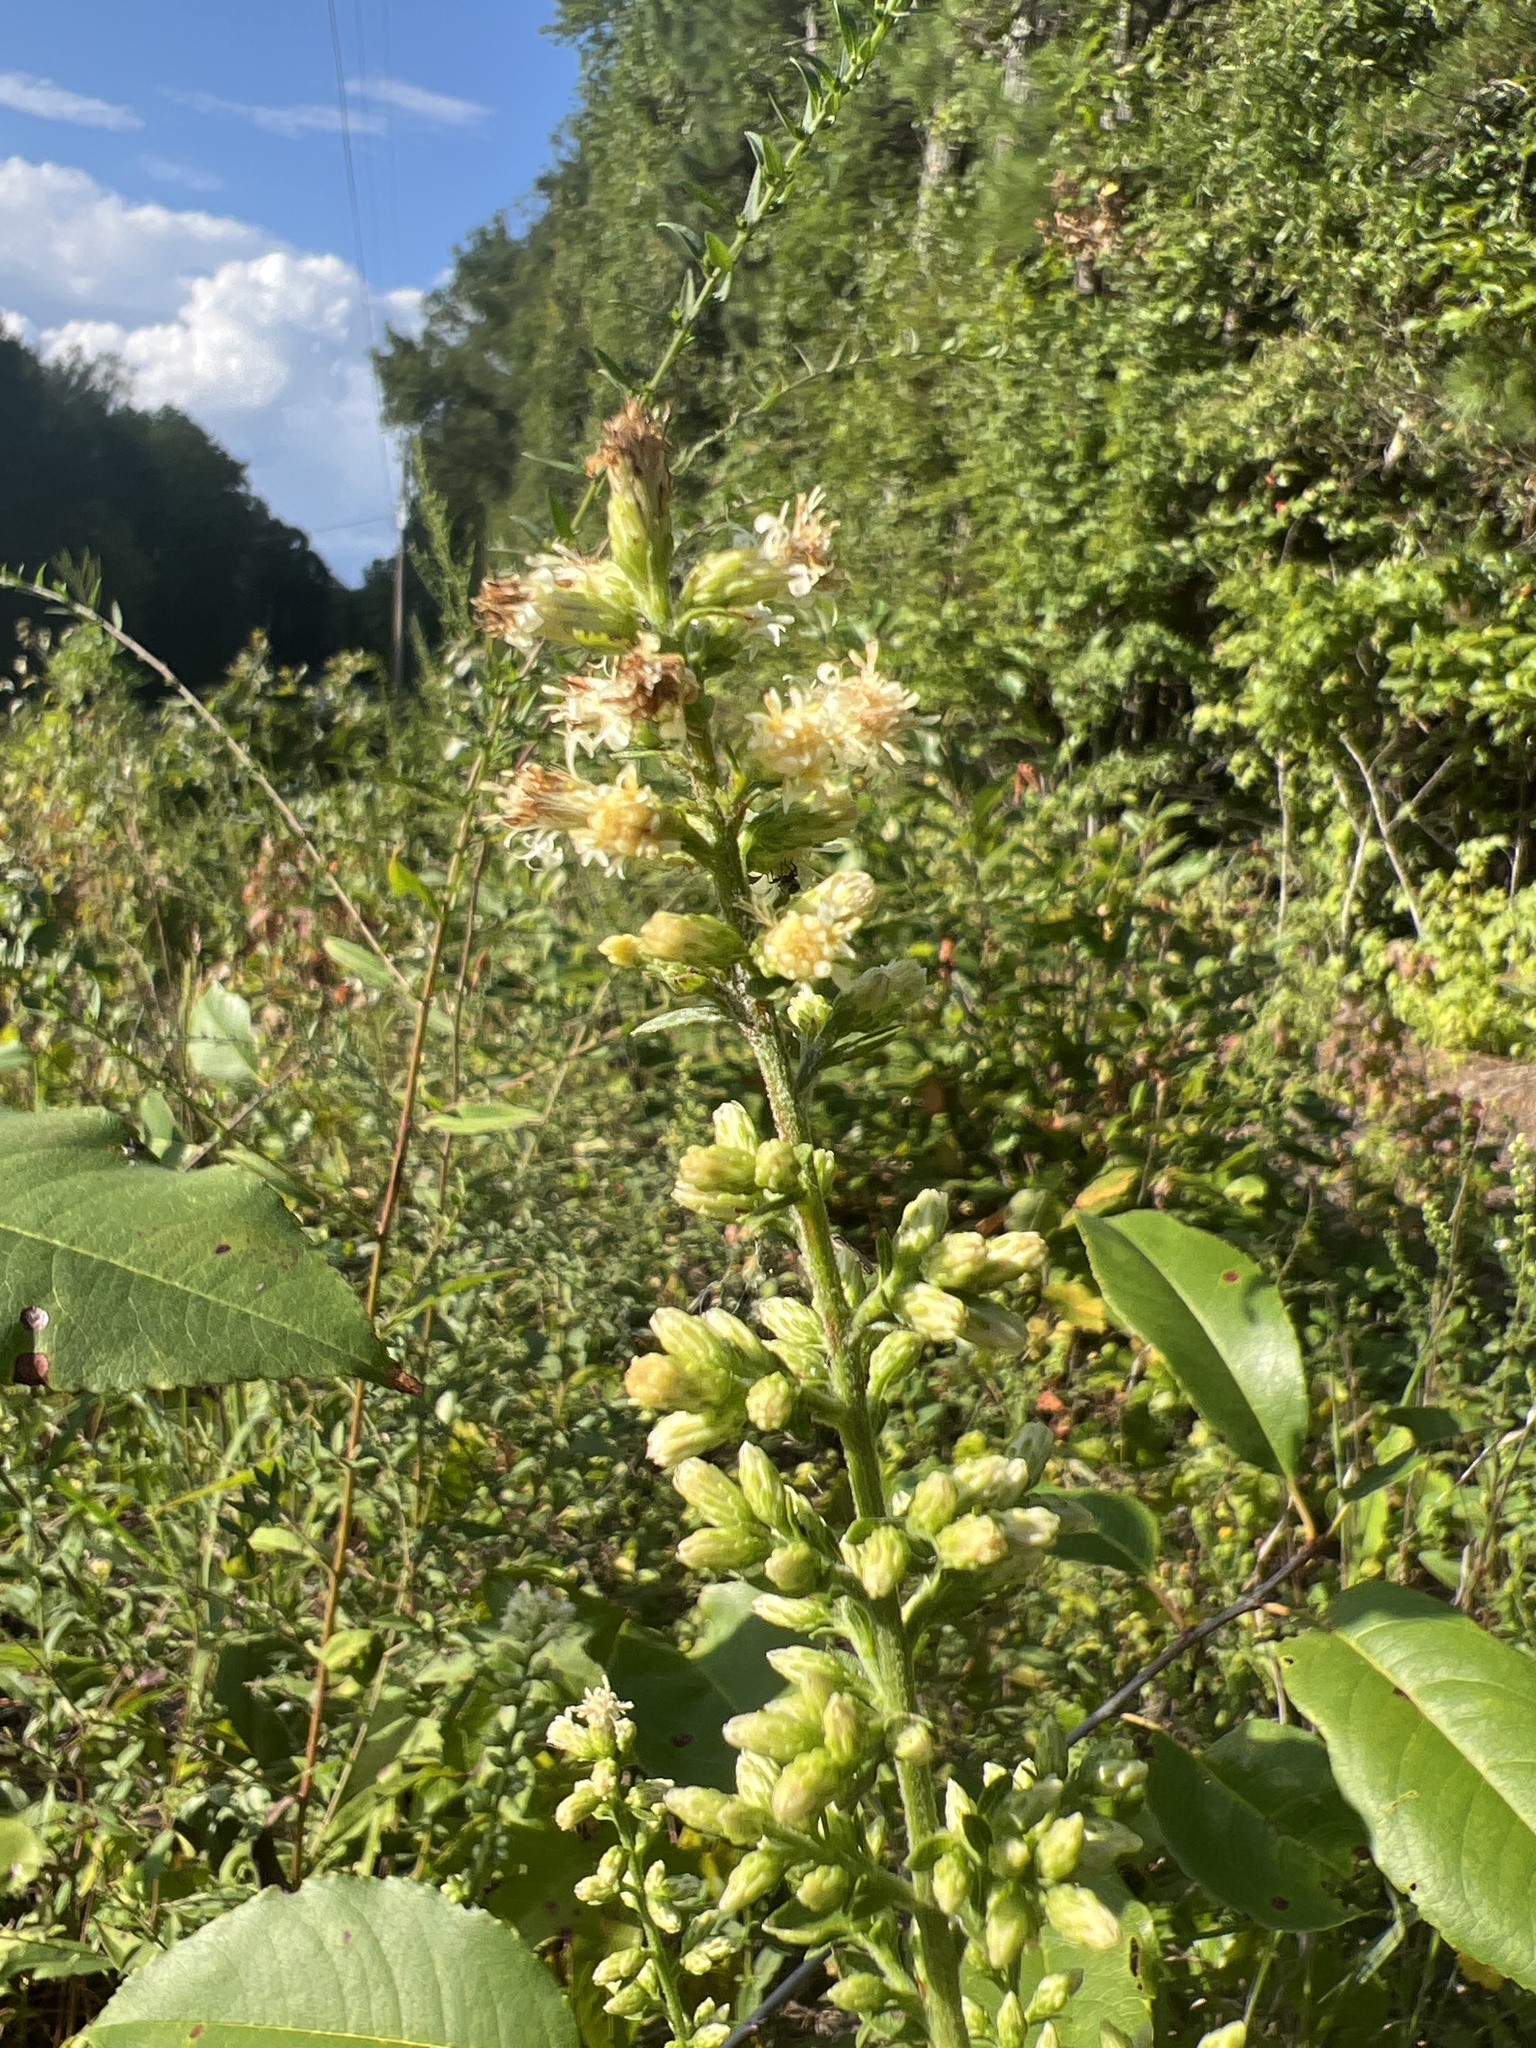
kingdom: Plantae
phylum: Tracheophyta
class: Magnoliopsida
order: Asterales
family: Asteraceae
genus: Solidago
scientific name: Solidago bicolor
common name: Silverrod
